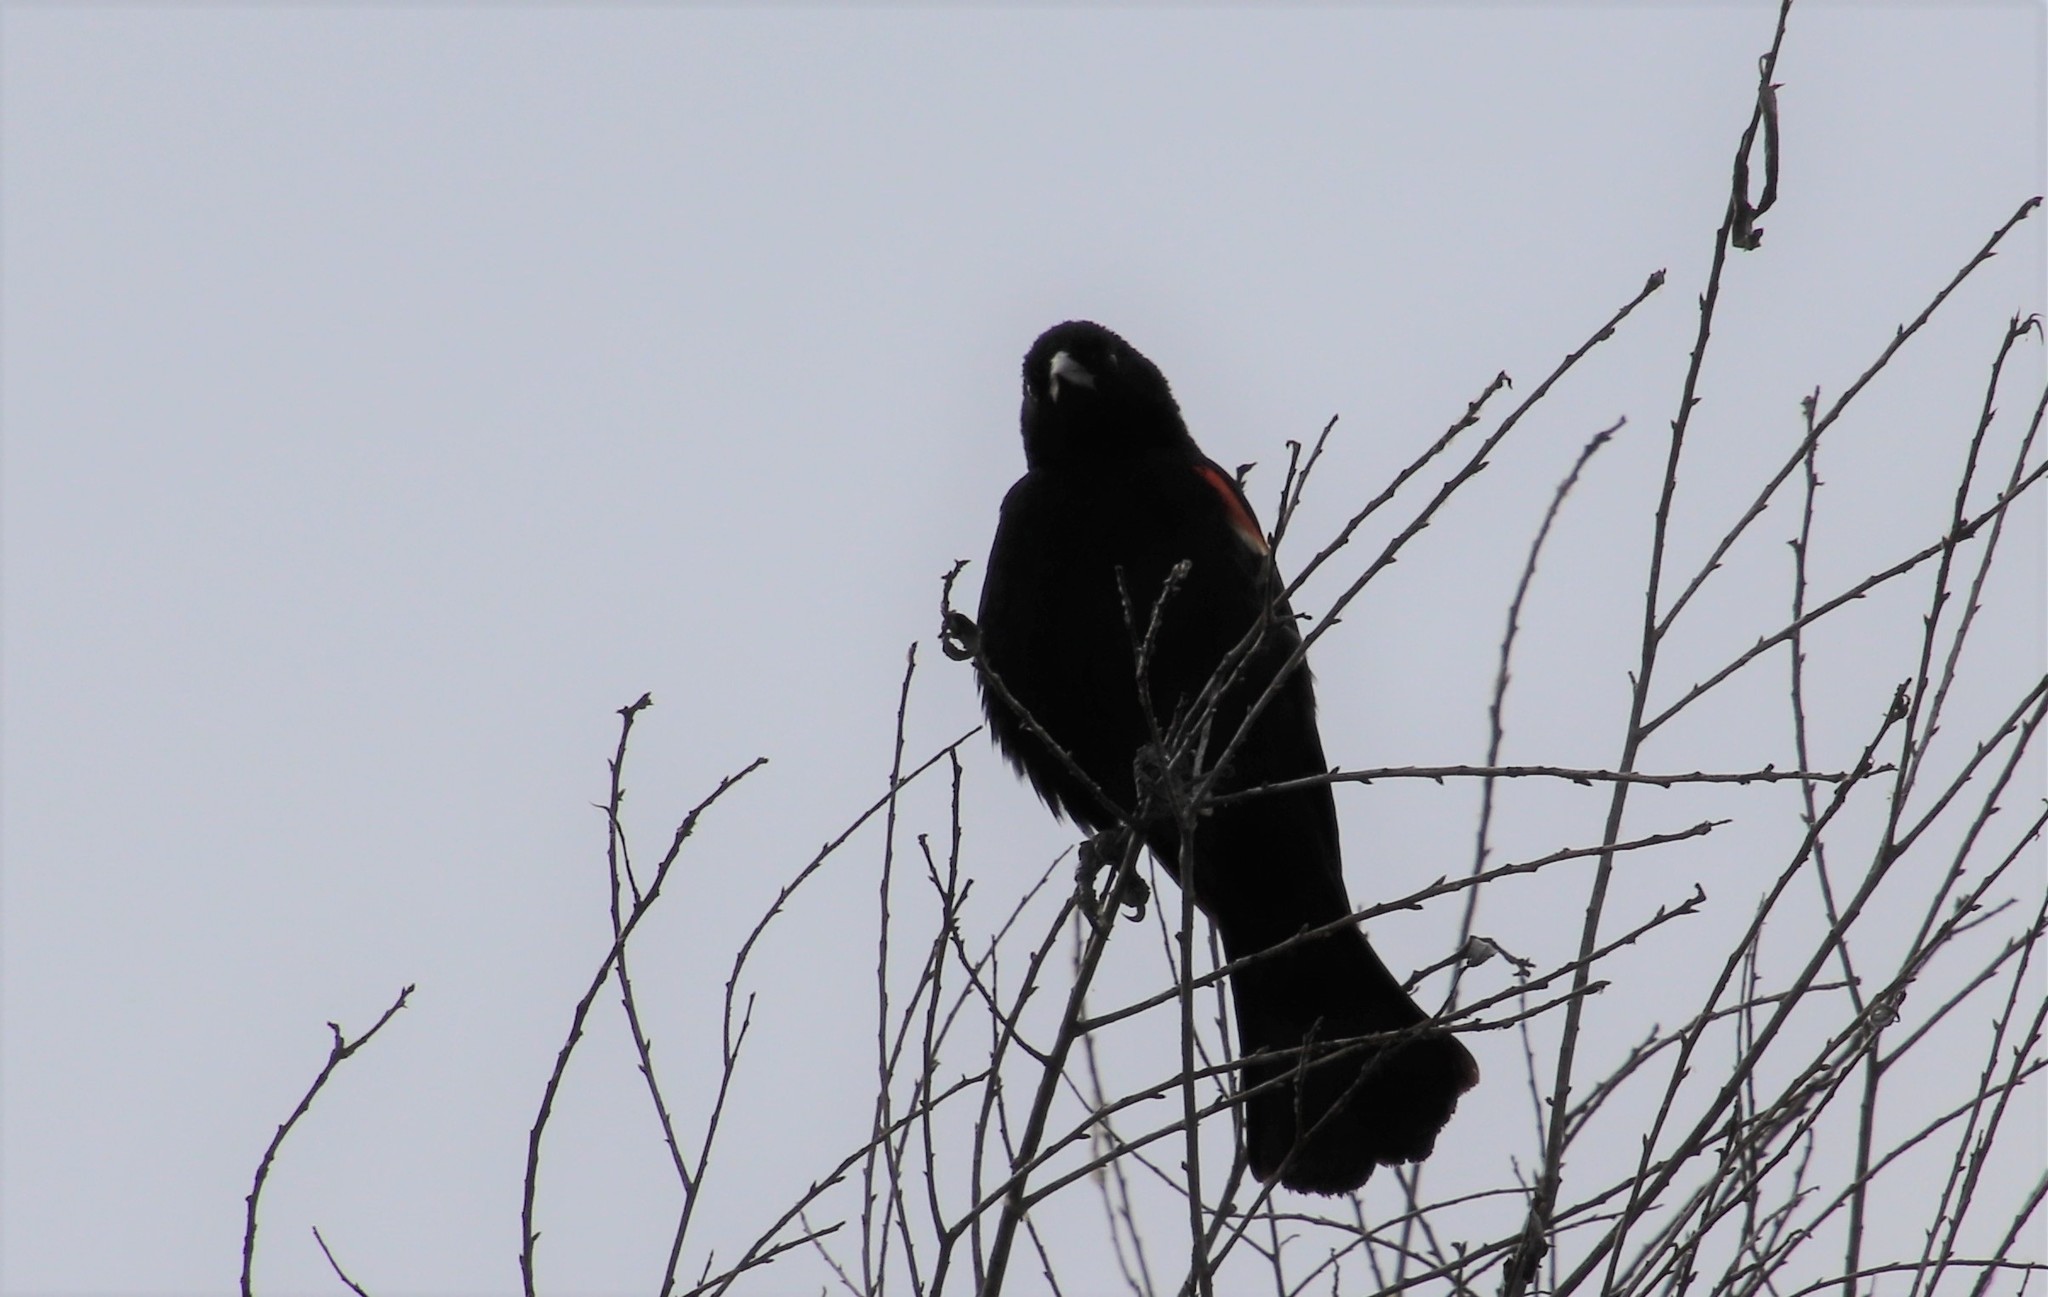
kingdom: Animalia
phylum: Chordata
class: Aves
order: Passeriformes
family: Icteridae
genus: Agelaius
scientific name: Agelaius phoeniceus
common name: Red-winged blackbird
